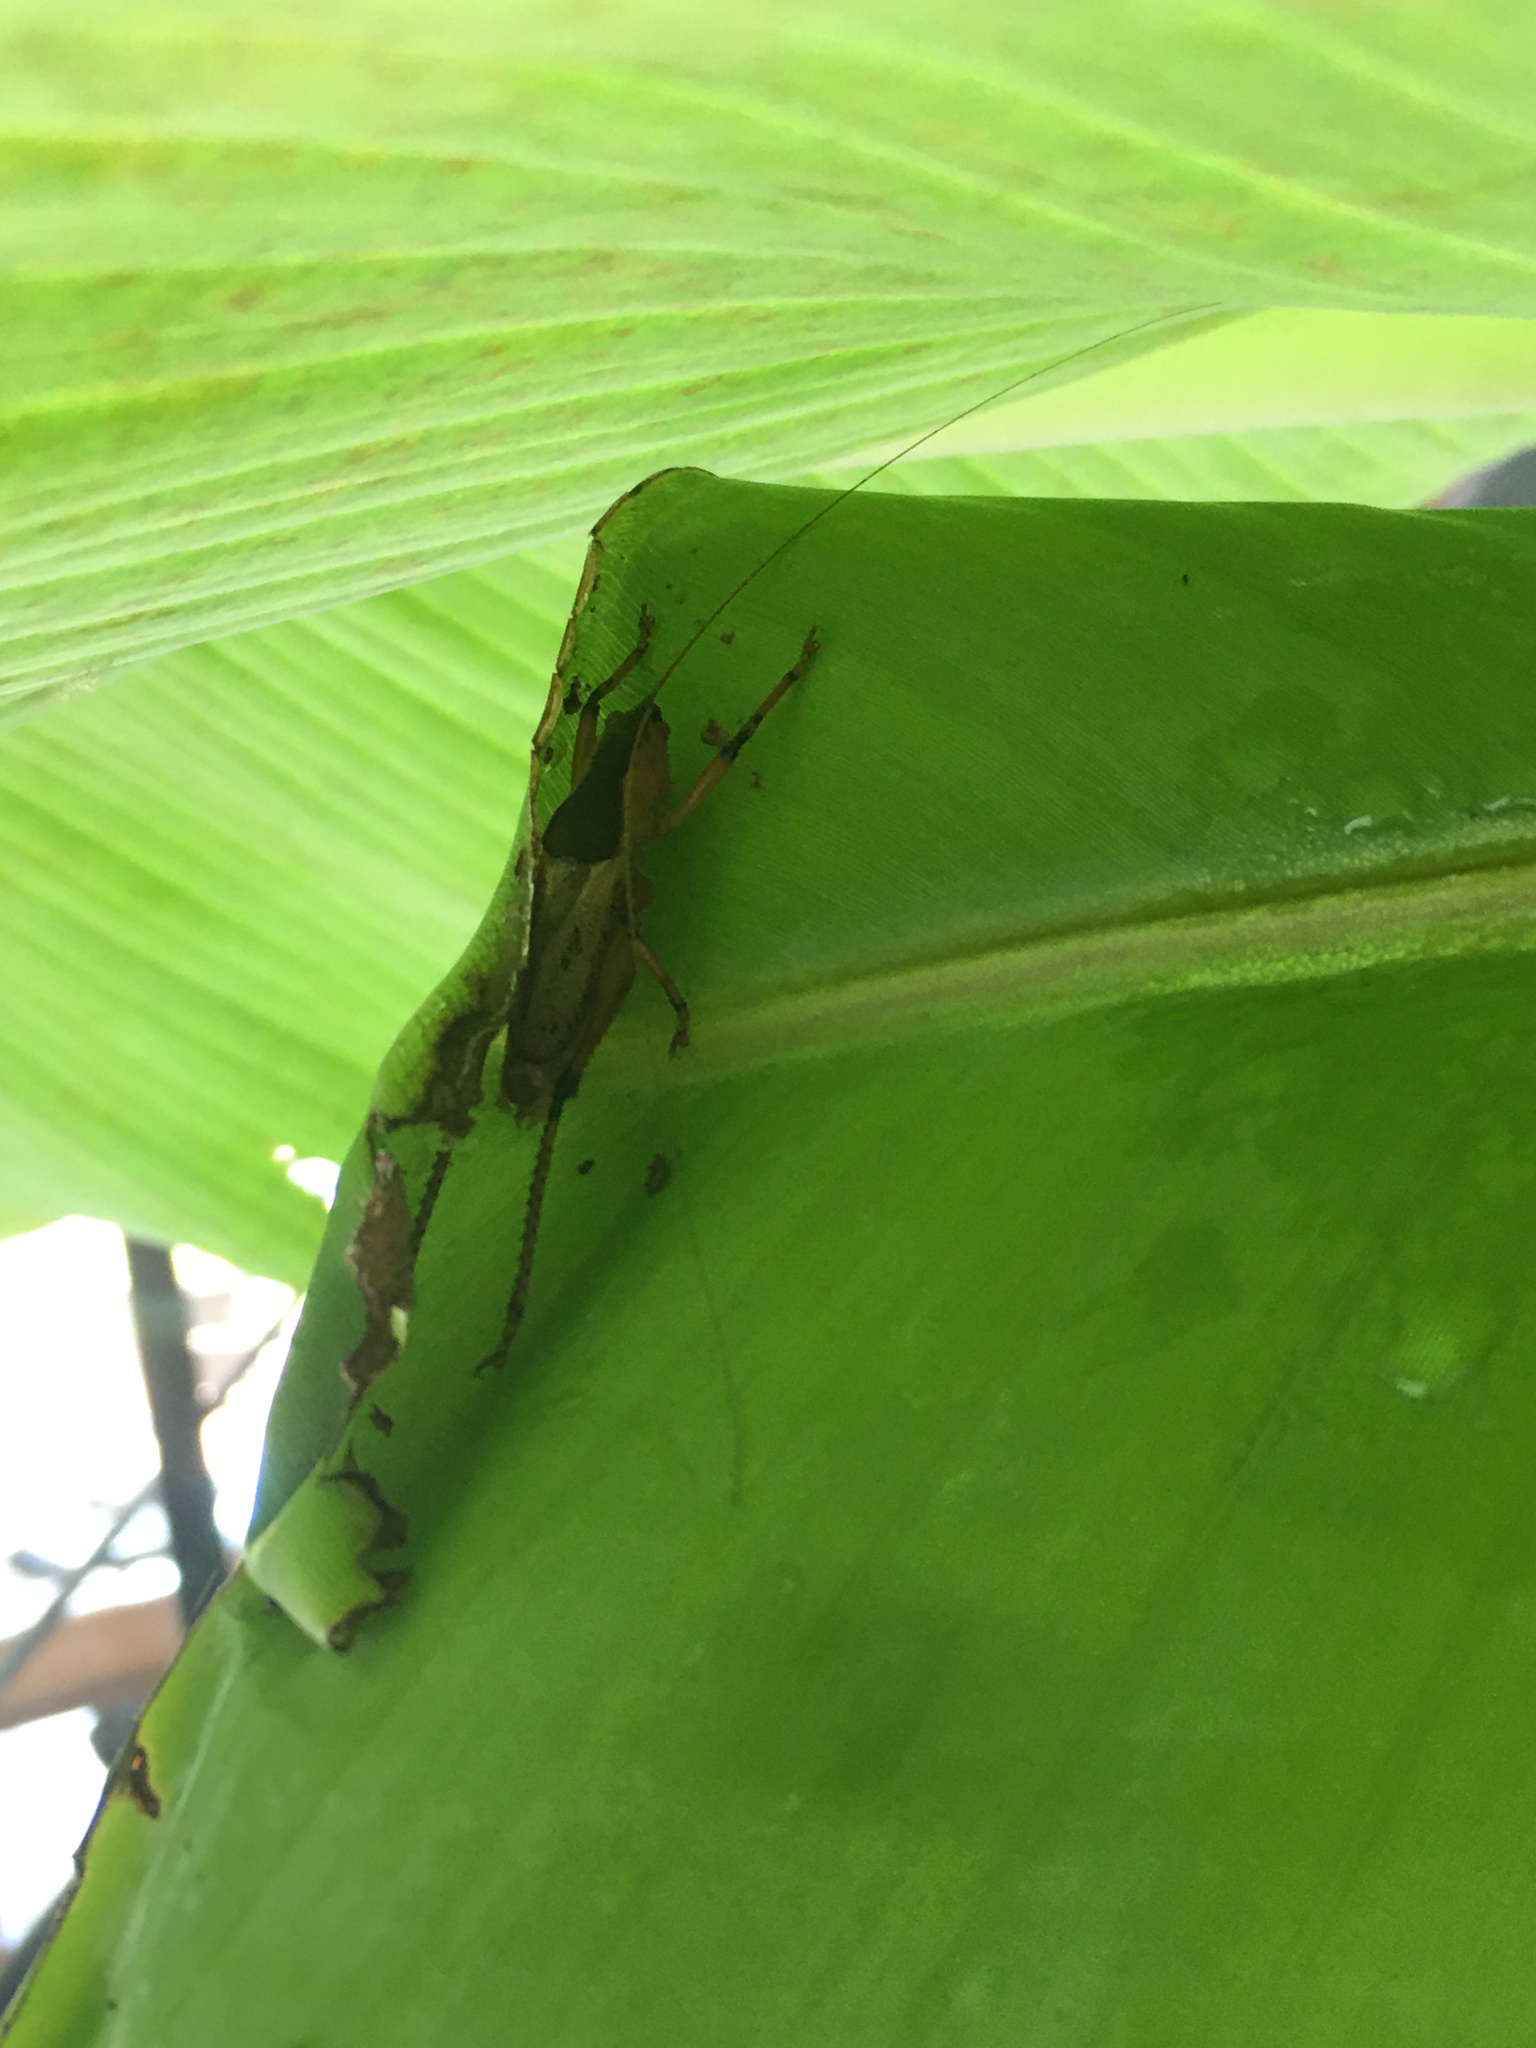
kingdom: Animalia
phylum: Arthropoda
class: Insecta
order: Orthoptera
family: Tettigoniidae
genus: Agraecia
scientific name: Agraecia agraecioides
